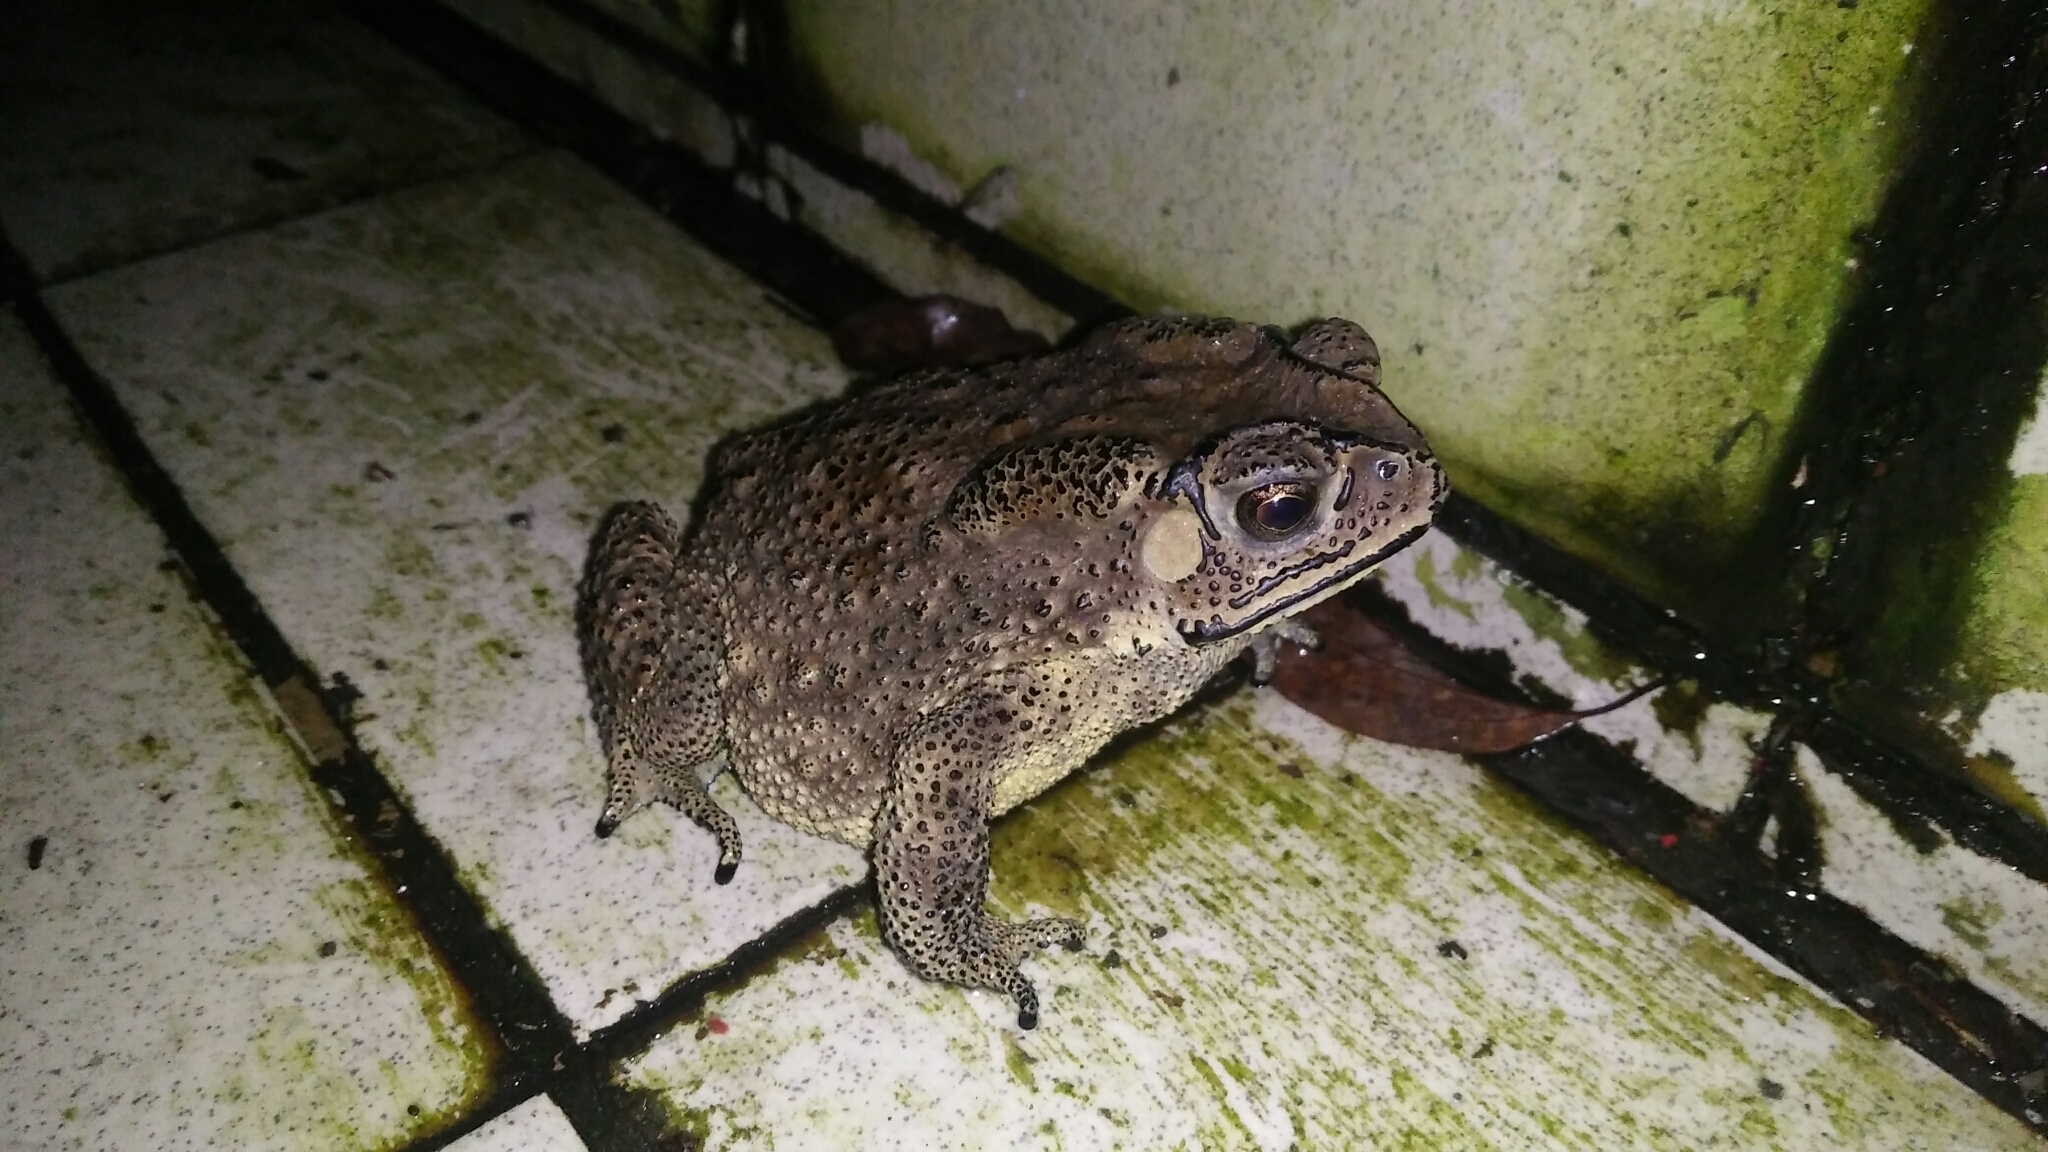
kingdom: Animalia
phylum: Chordata
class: Amphibia
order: Anura
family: Bufonidae
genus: Duttaphrynus
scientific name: Duttaphrynus melanostictus
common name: Common sunda toad
